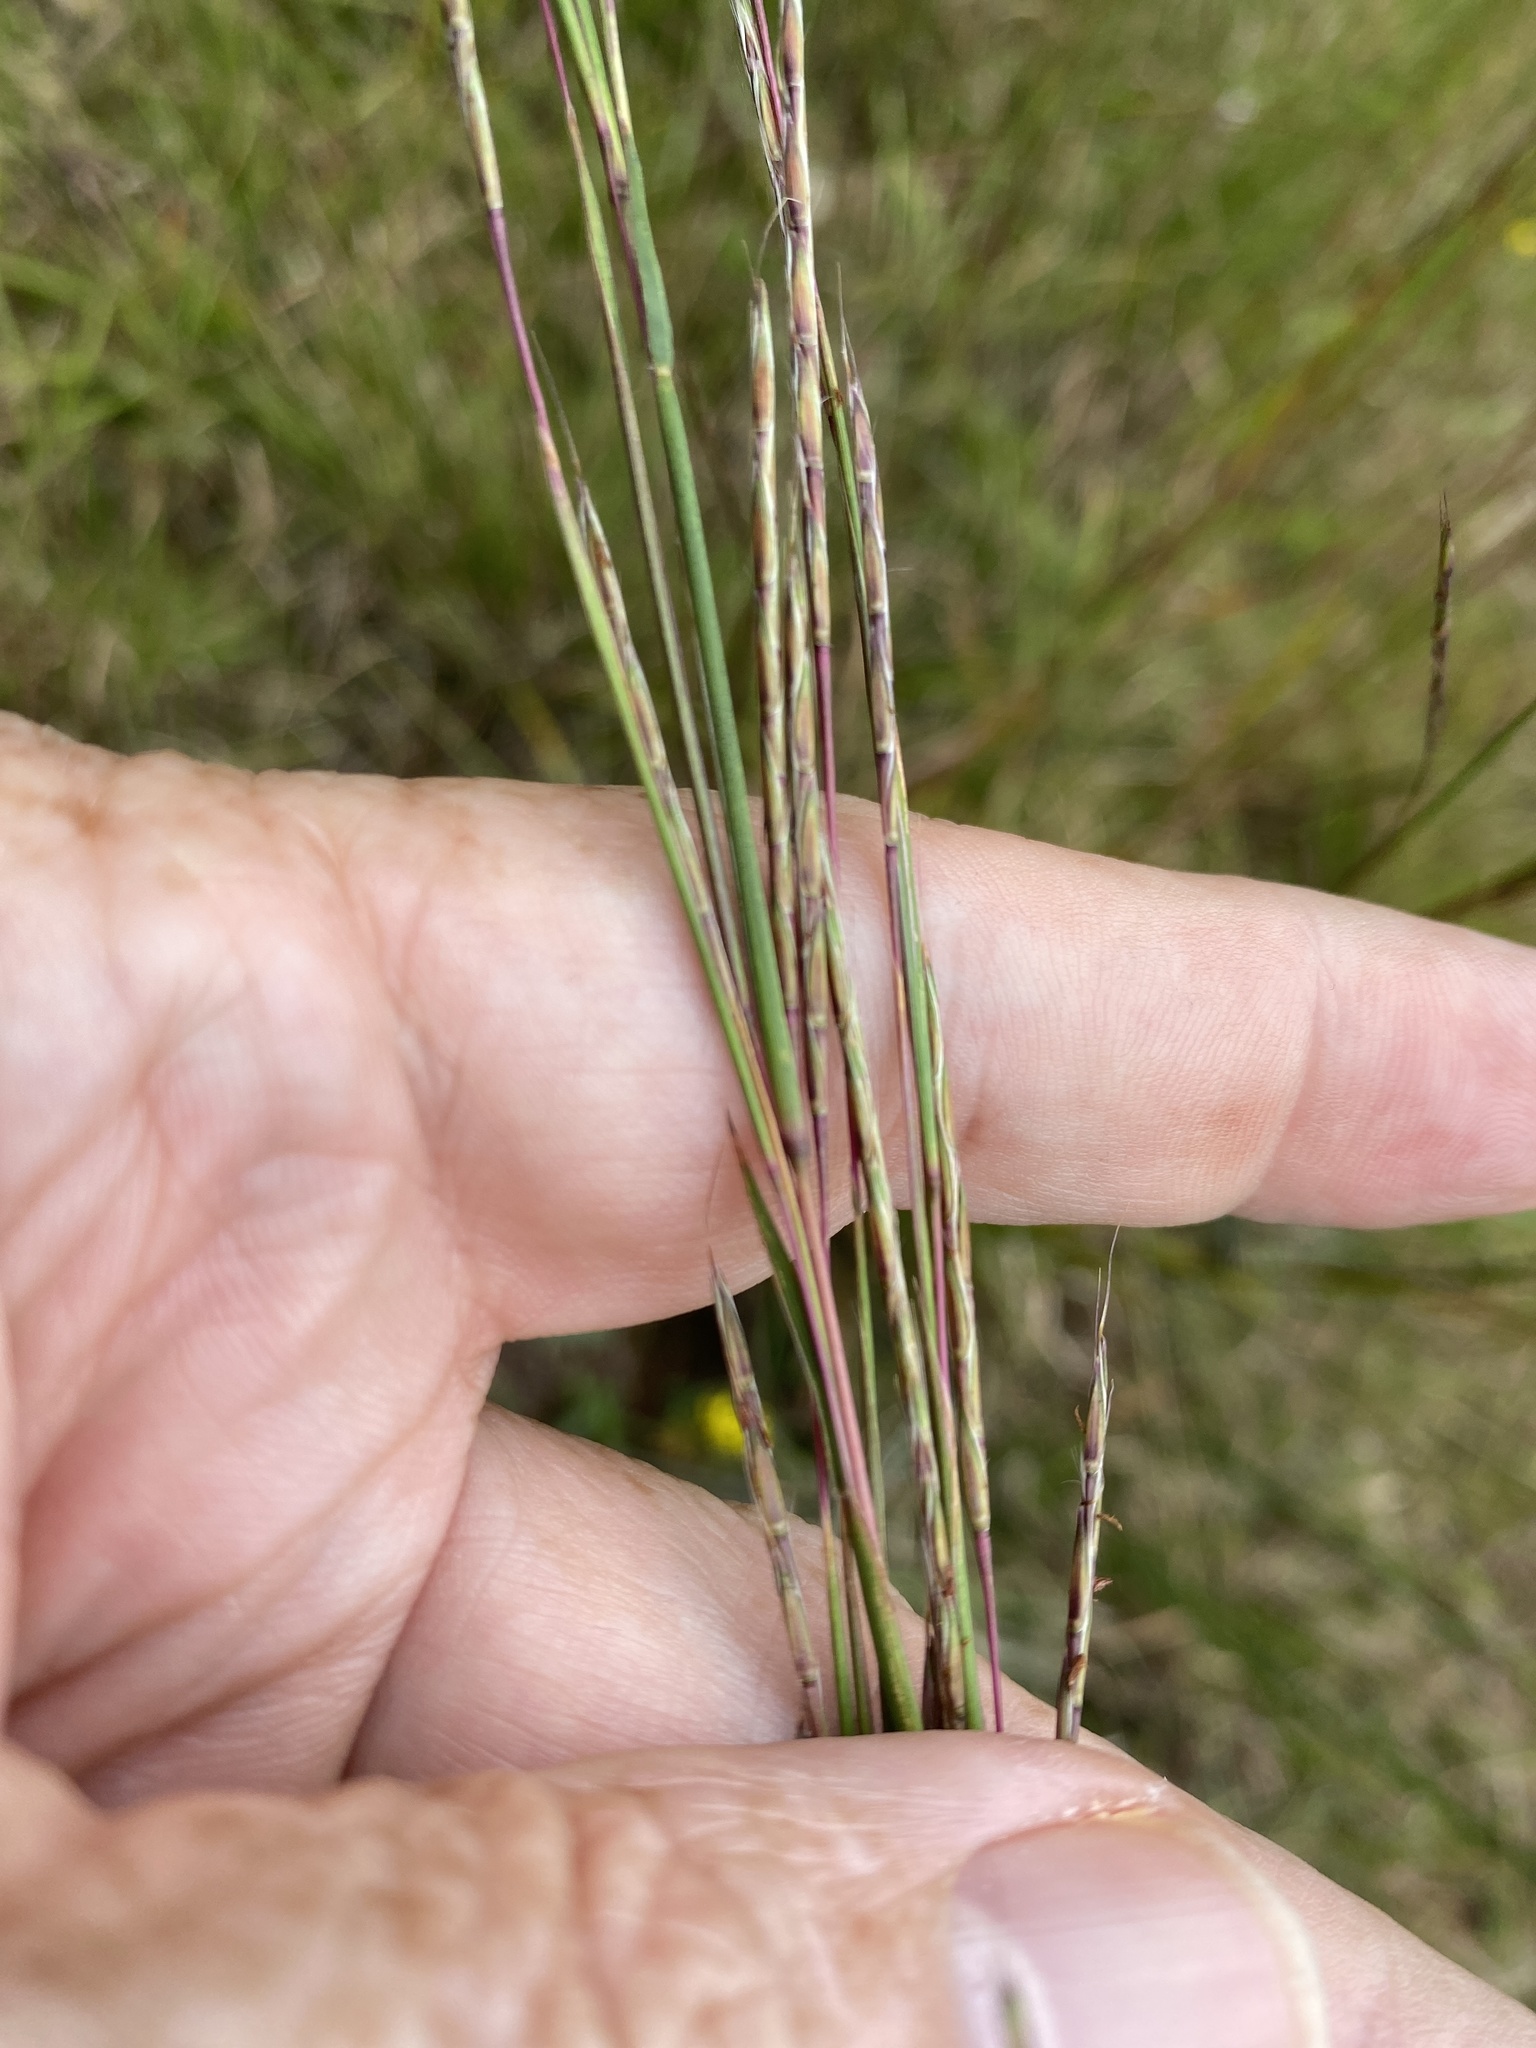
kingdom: Plantae
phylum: Tracheophyta
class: Liliopsida
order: Poales
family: Poaceae
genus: Schizachyrium
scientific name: Schizachyrium scoparium
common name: Little bluestem
